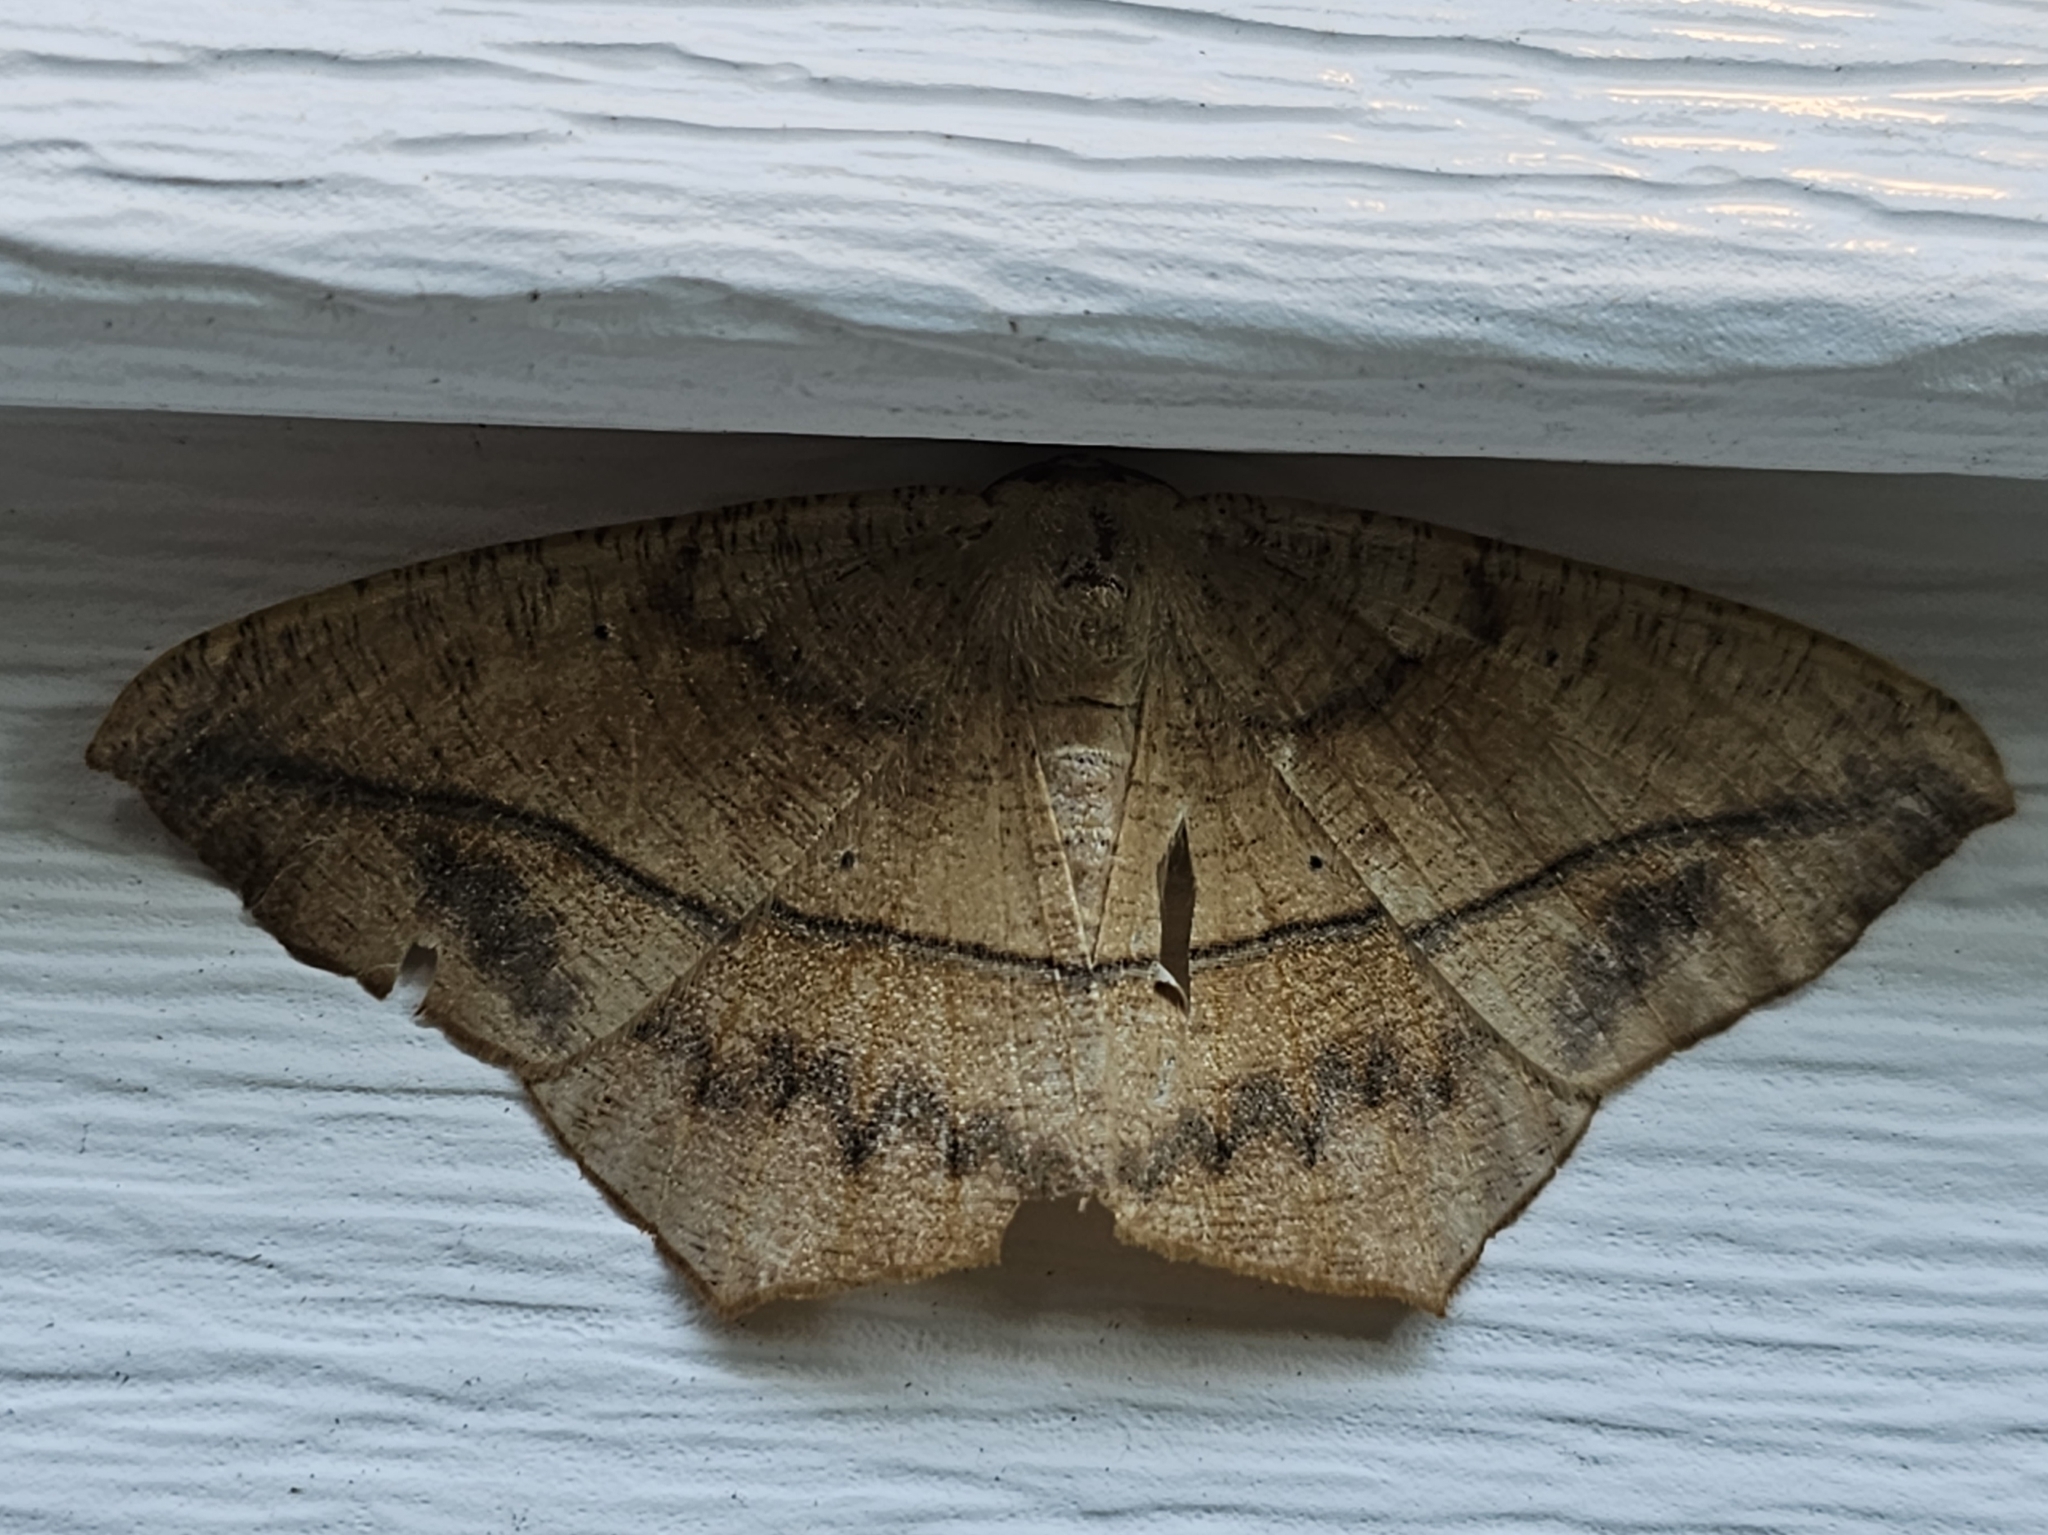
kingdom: Animalia
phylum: Arthropoda
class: Insecta
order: Lepidoptera
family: Geometridae
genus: Prochoerodes
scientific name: Prochoerodes lineola
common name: Large maple spanworm
